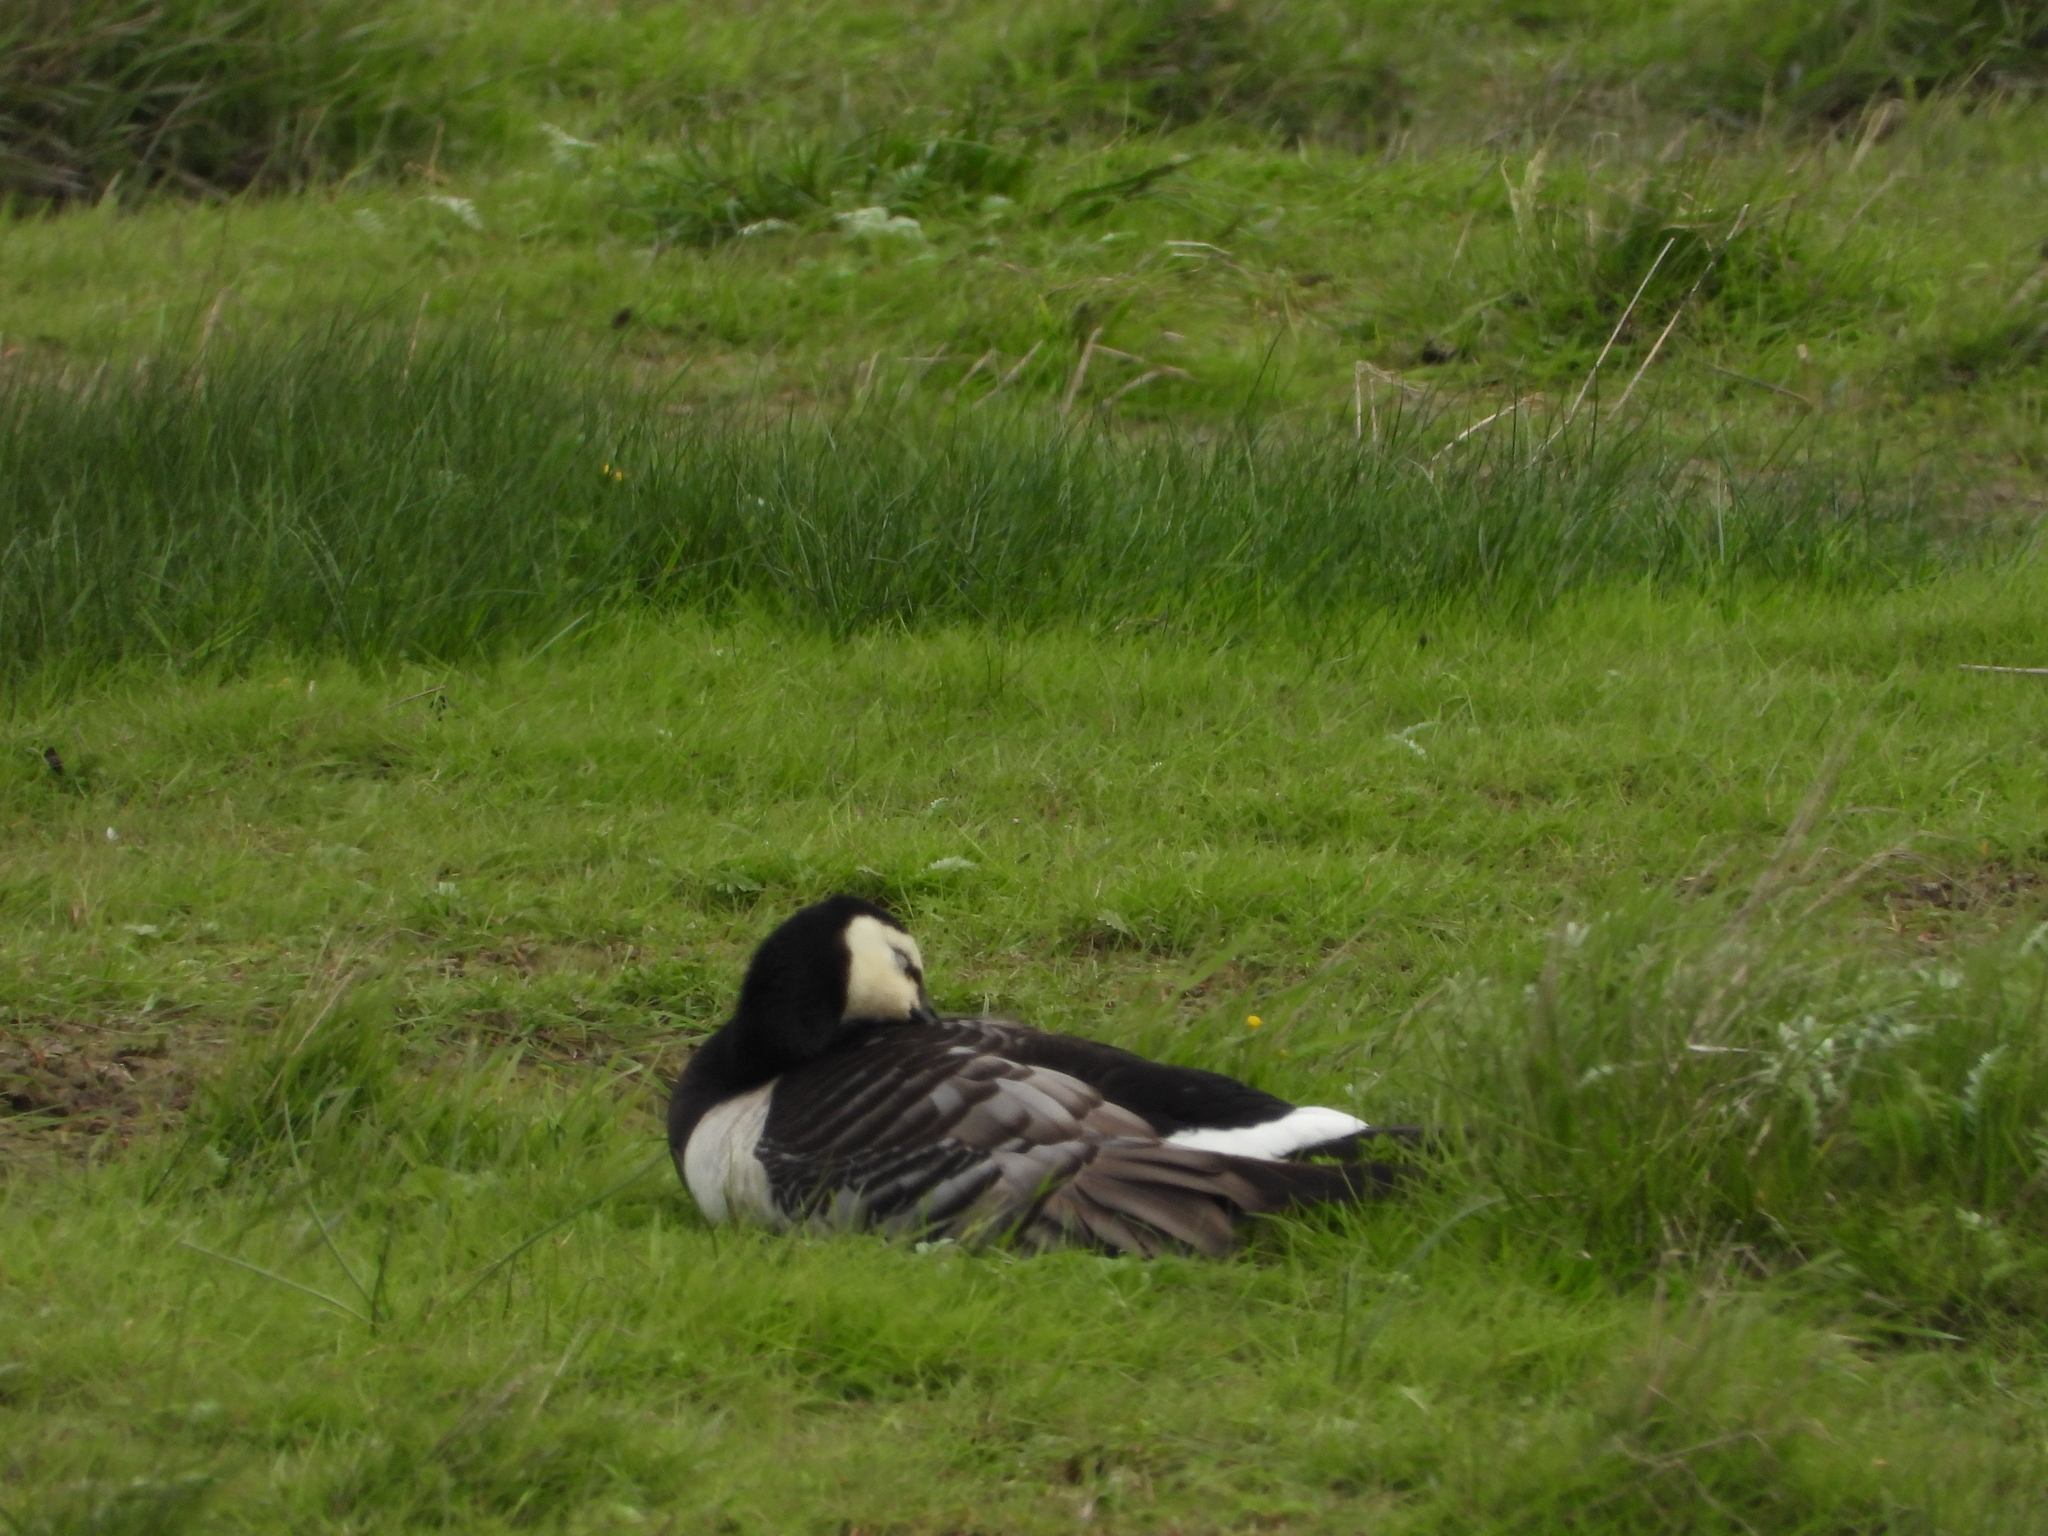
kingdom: Animalia
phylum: Chordata
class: Aves
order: Anseriformes
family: Anatidae
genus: Branta
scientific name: Branta leucopsis
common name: Barnacle goose
